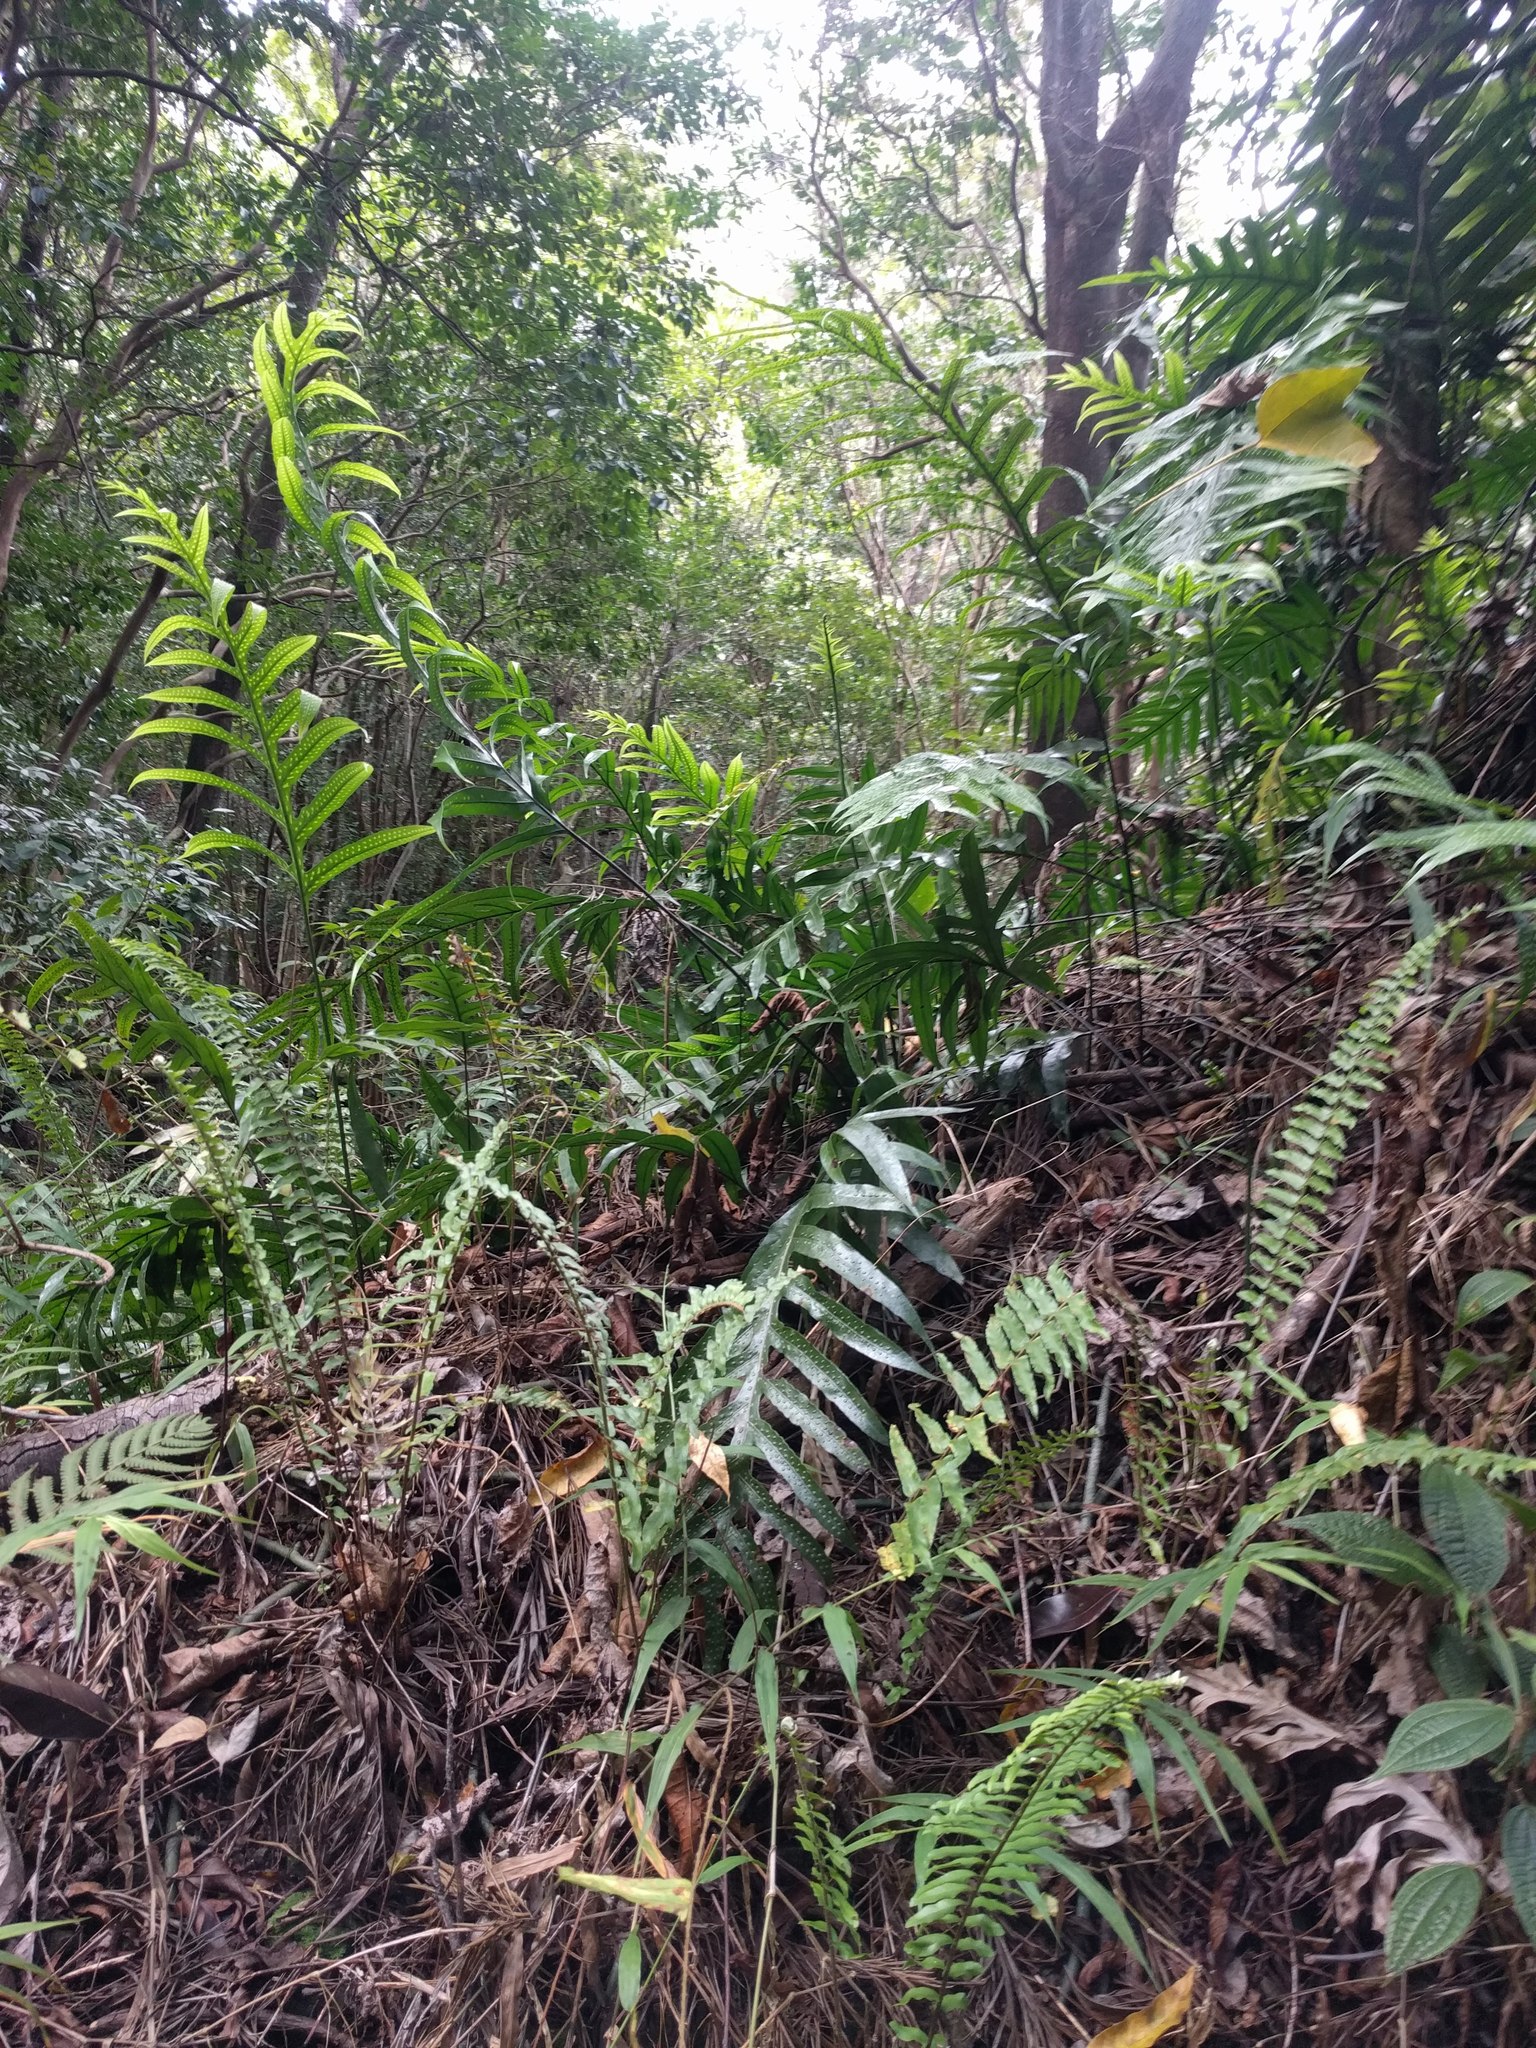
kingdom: Plantae
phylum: Tracheophyta
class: Polypodiopsida
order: Polypodiales
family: Polypodiaceae
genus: Microsorum
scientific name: Microsorum grossum
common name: Musk fern
